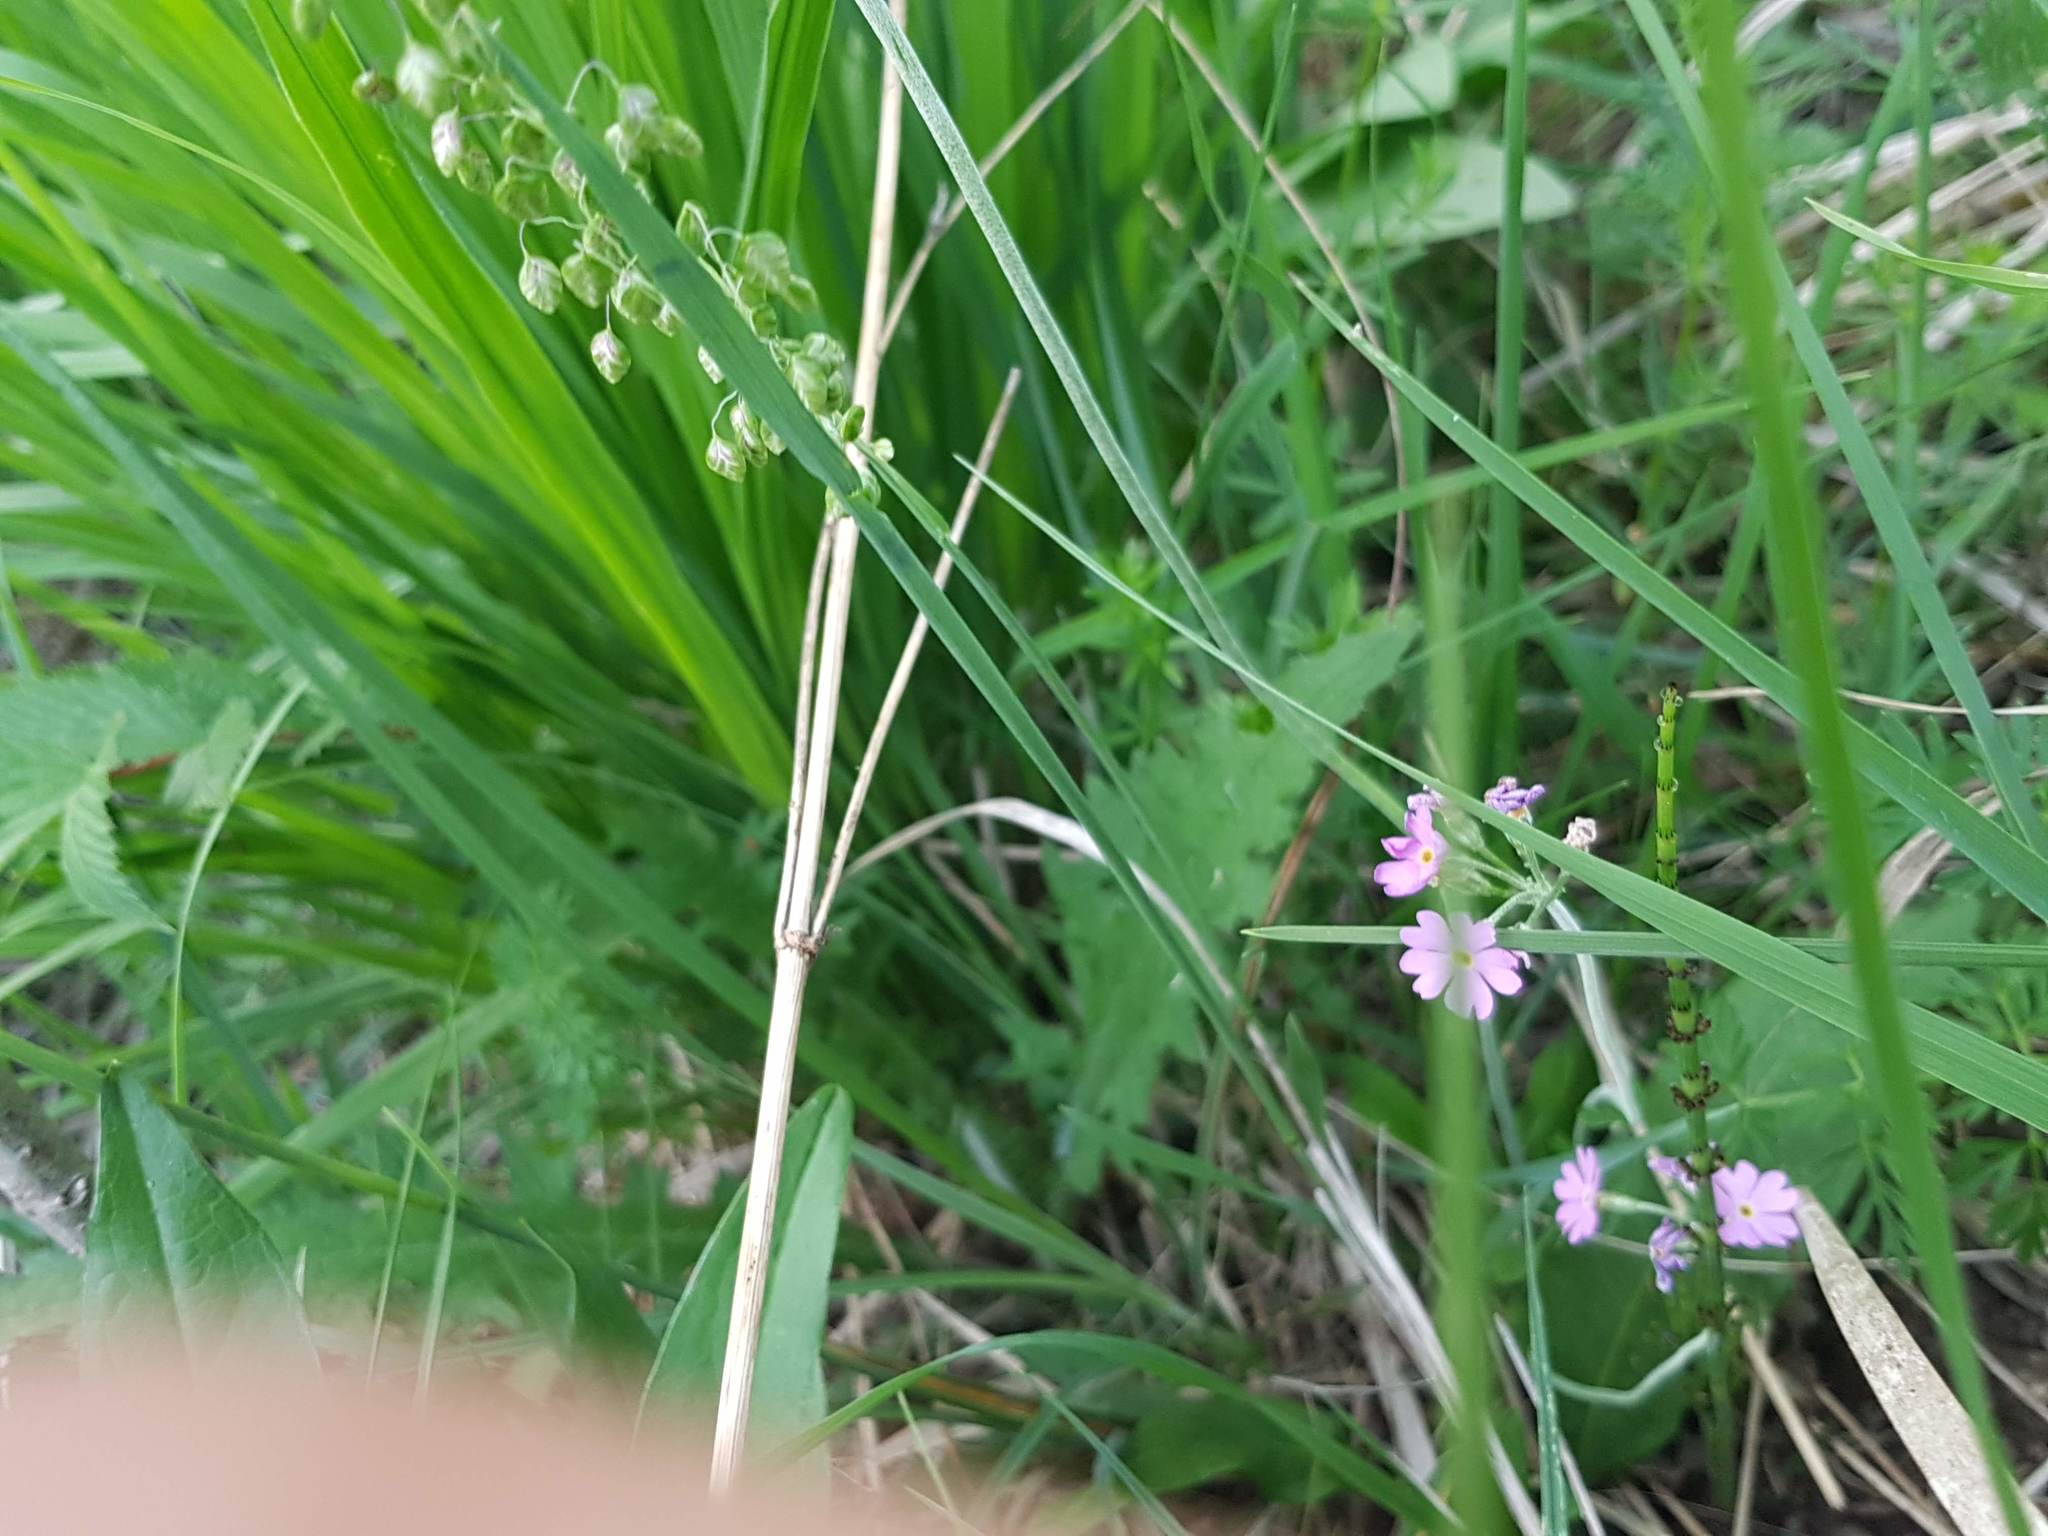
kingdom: Plantae
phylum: Tracheophyta
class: Magnoliopsida
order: Ericales
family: Primulaceae
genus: Primula
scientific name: Primula farinosa
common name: Bird's-eye primrose
